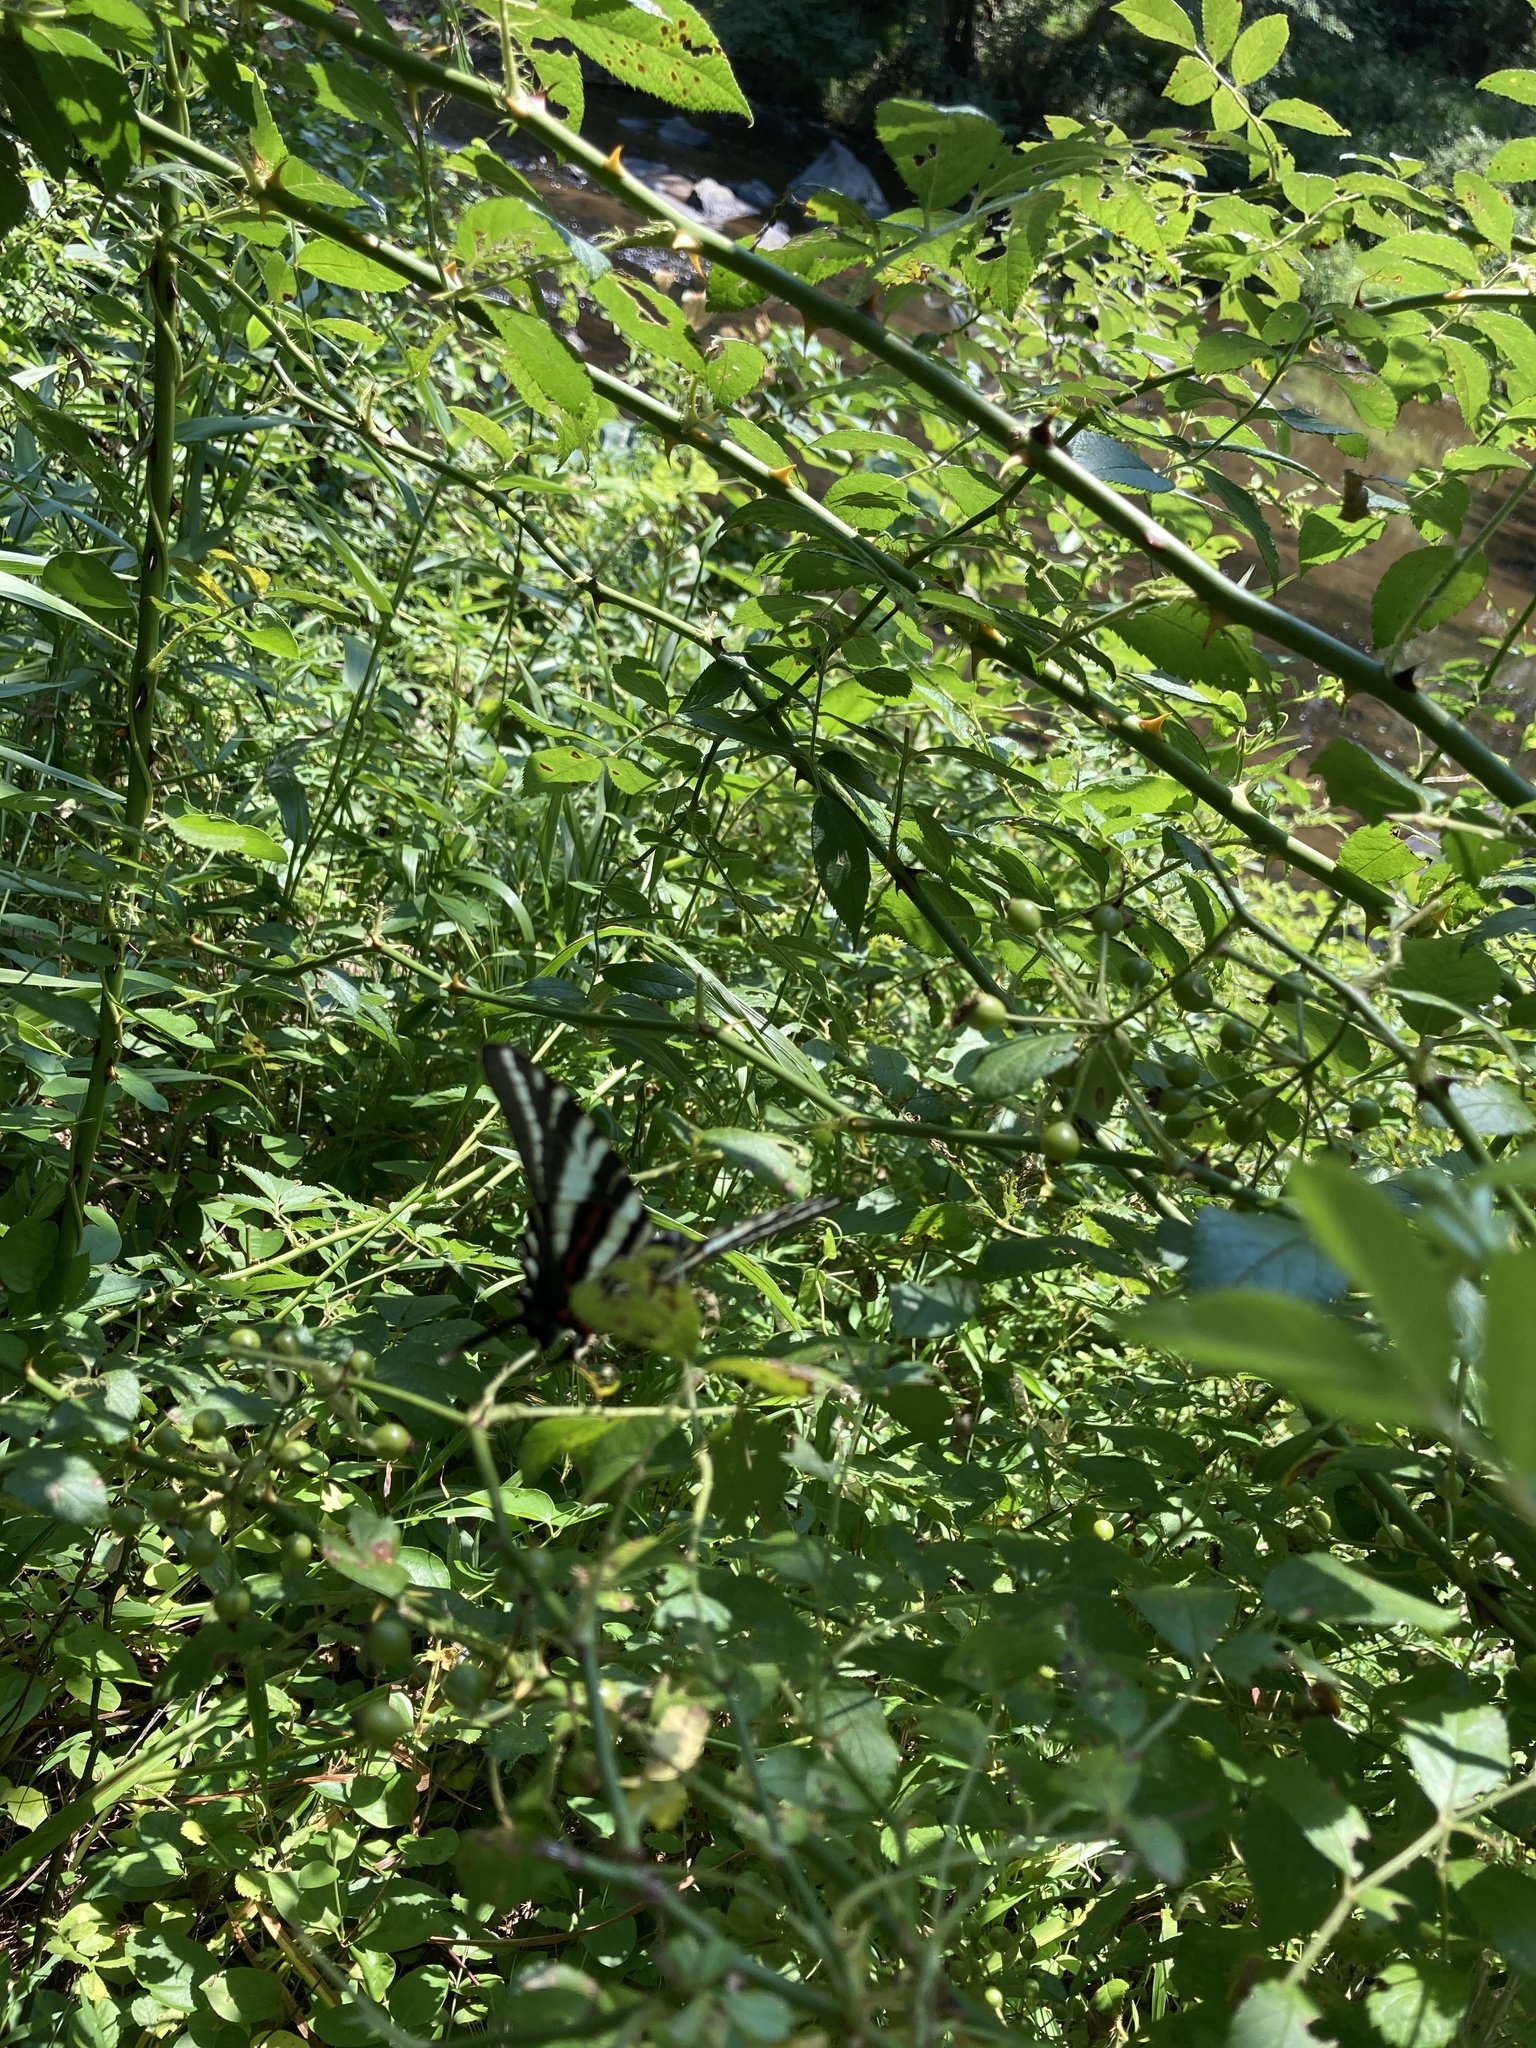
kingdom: Animalia
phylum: Arthropoda
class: Insecta
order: Lepidoptera
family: Papilionidae
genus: Protographium
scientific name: Protographium marcellus
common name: Zebra swallowtail
